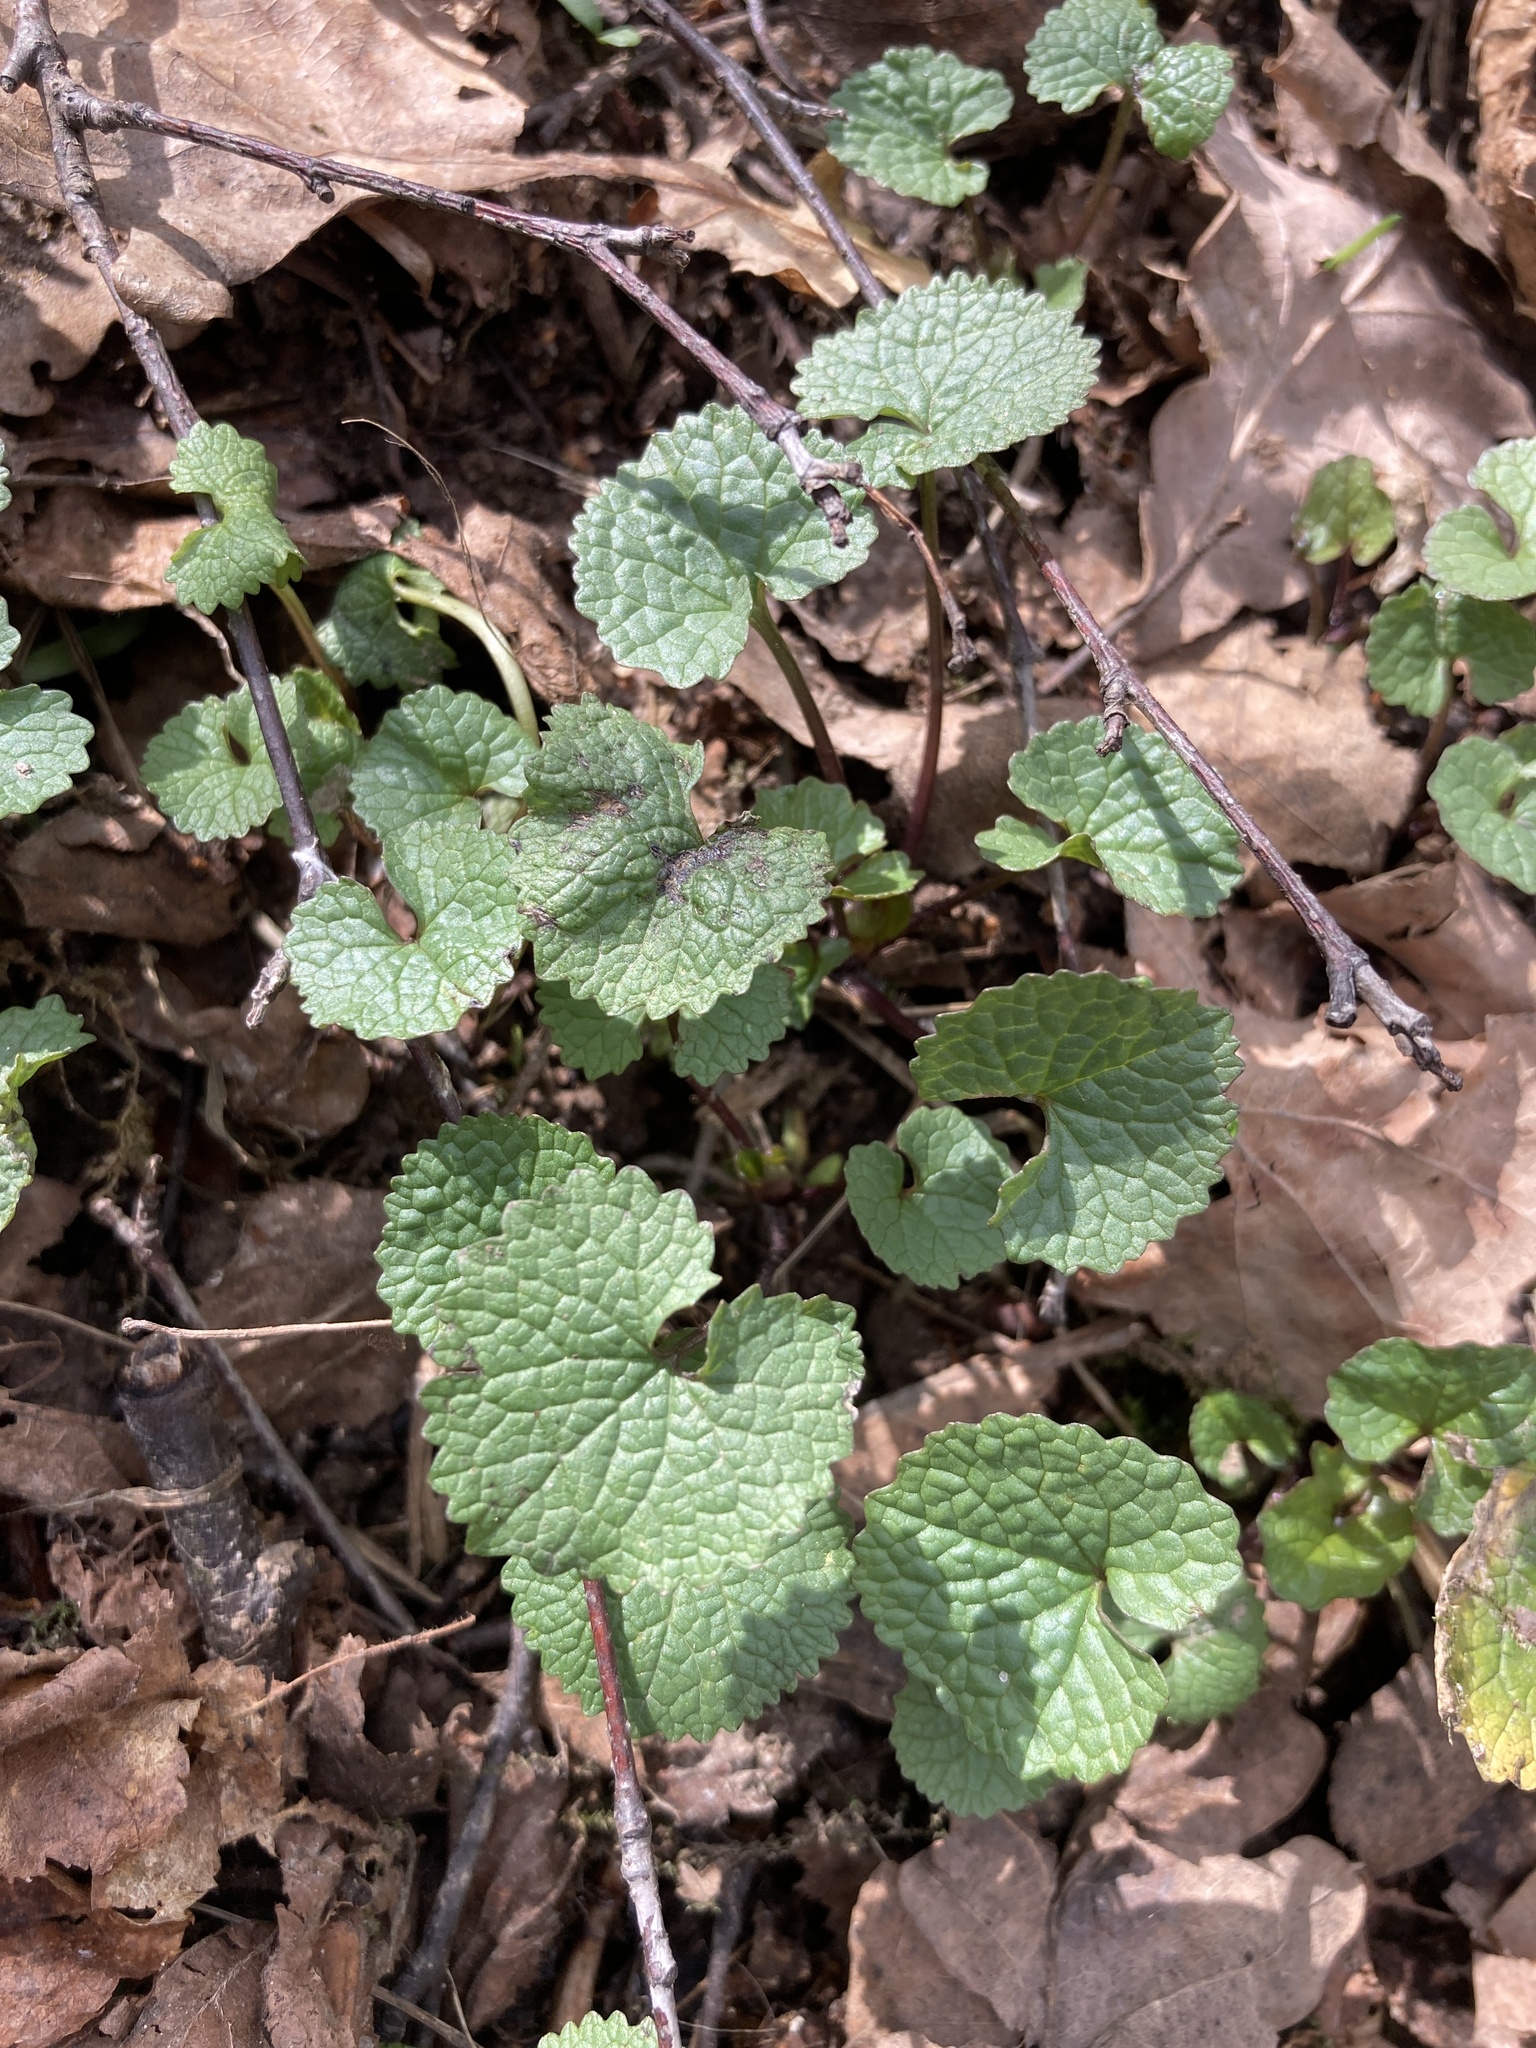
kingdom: Plantae
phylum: Tracheophyta
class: Magnoliopsida
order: Brassicales
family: Brassicaceae
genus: Alliaria
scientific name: Alliaria petiolata
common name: Garlic mustard
